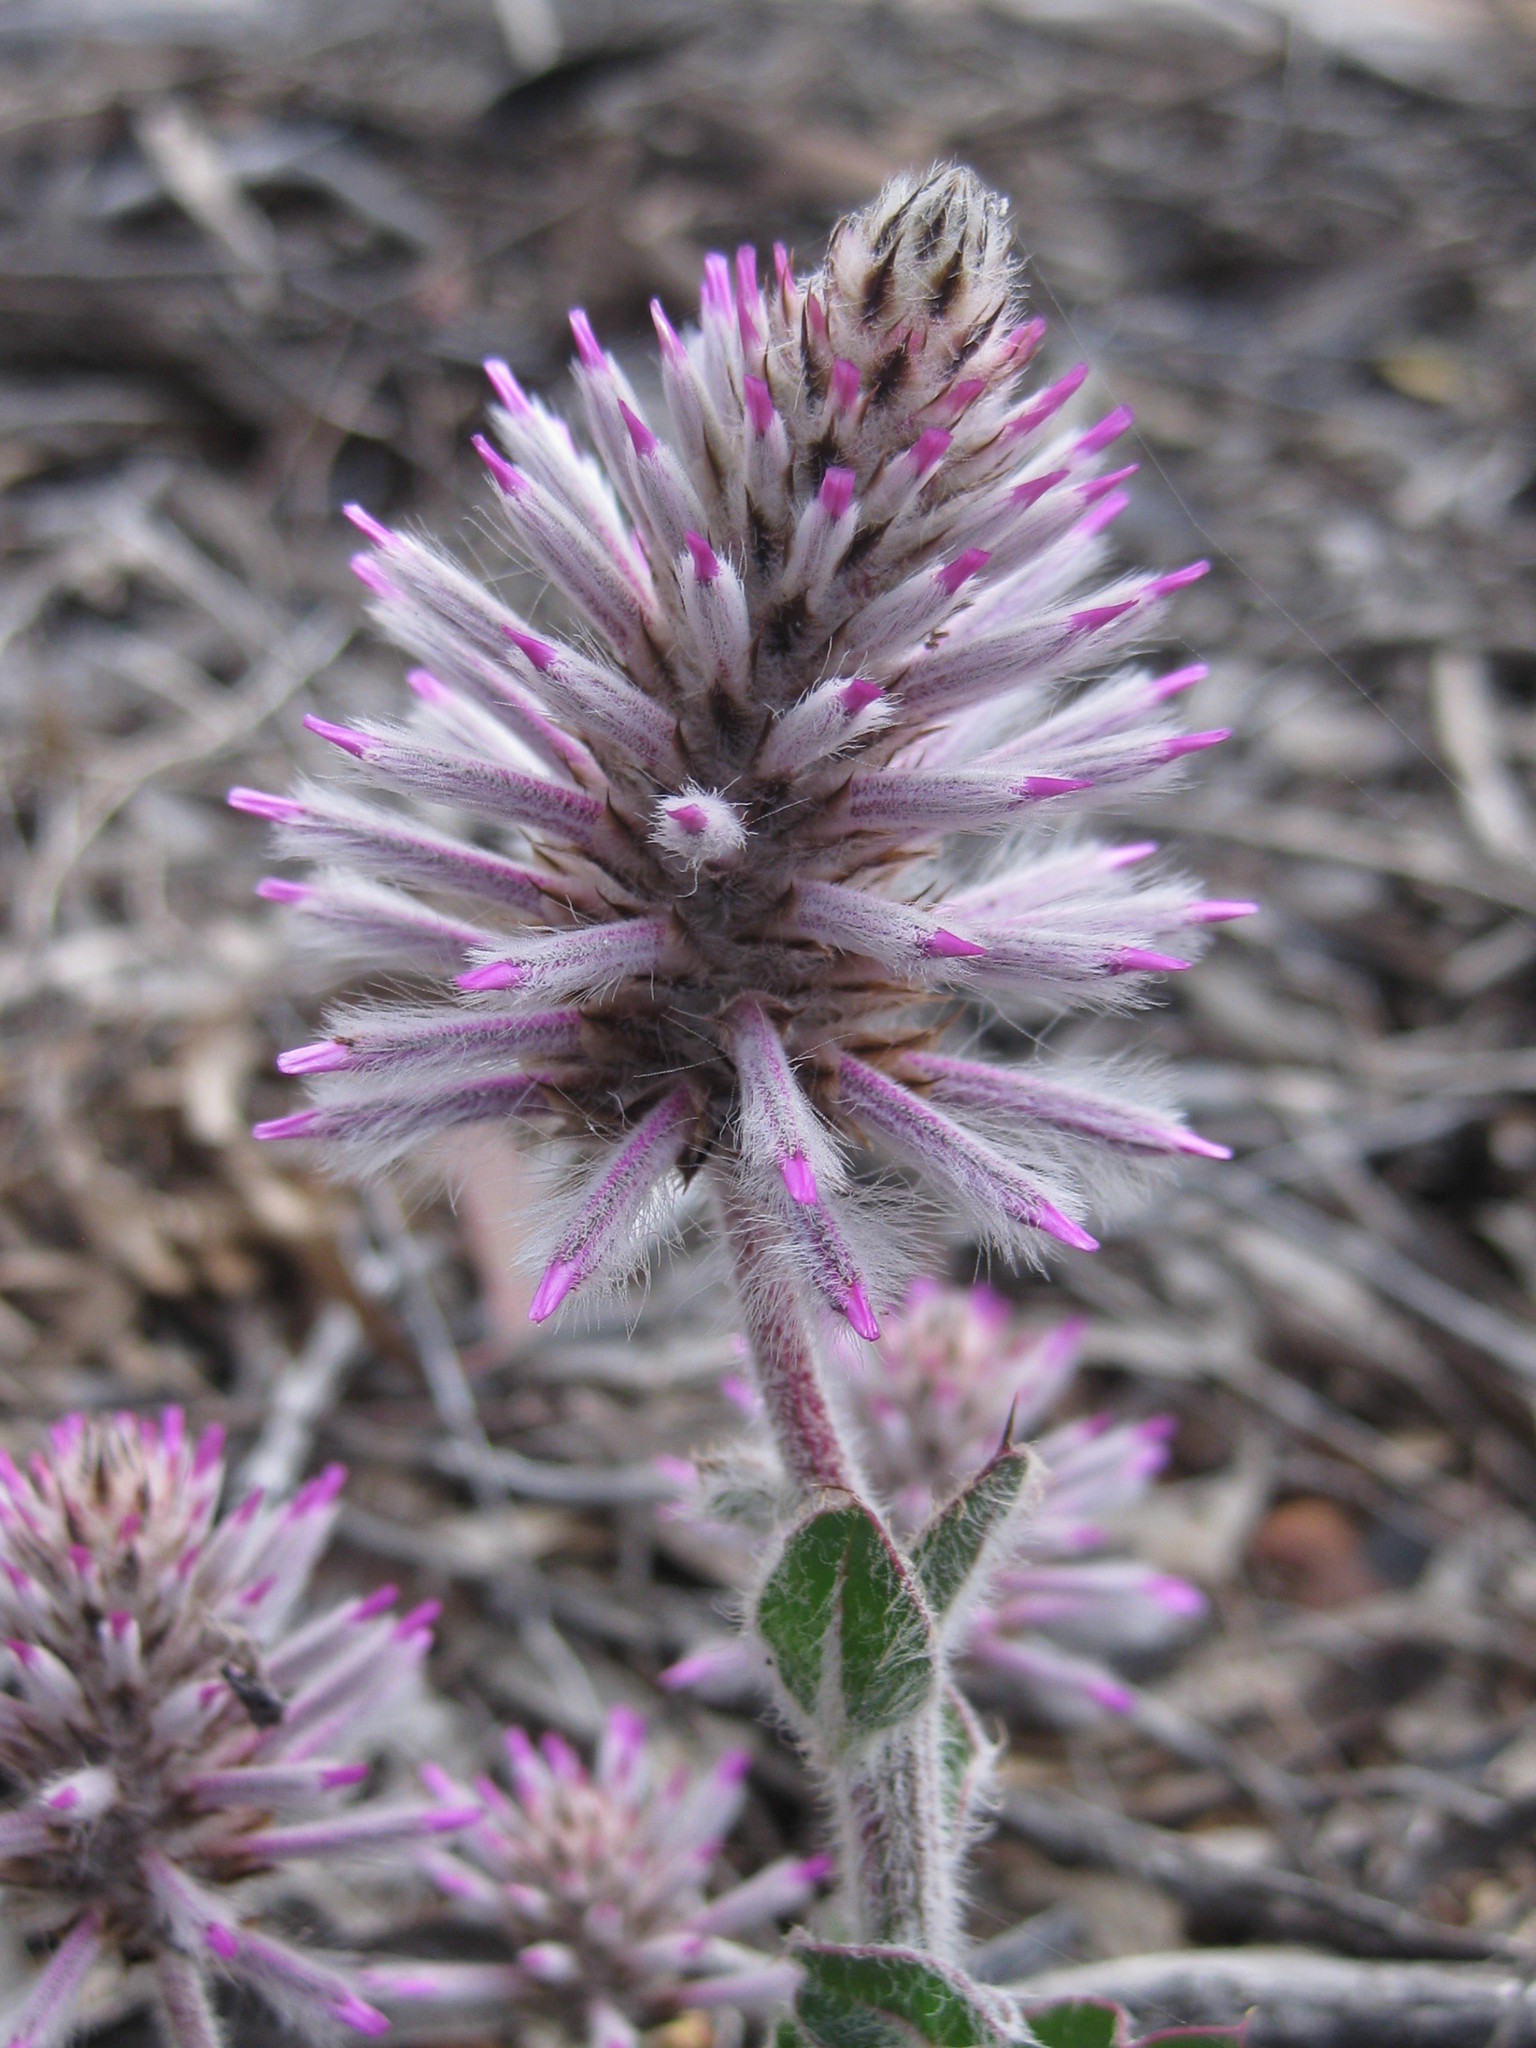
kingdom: Plantae
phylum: Tracheophyta
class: Magnoliopsida
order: Caryophyllales
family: Amaranthaceae
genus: Ptilotus
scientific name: Ptilotus exaltatus
